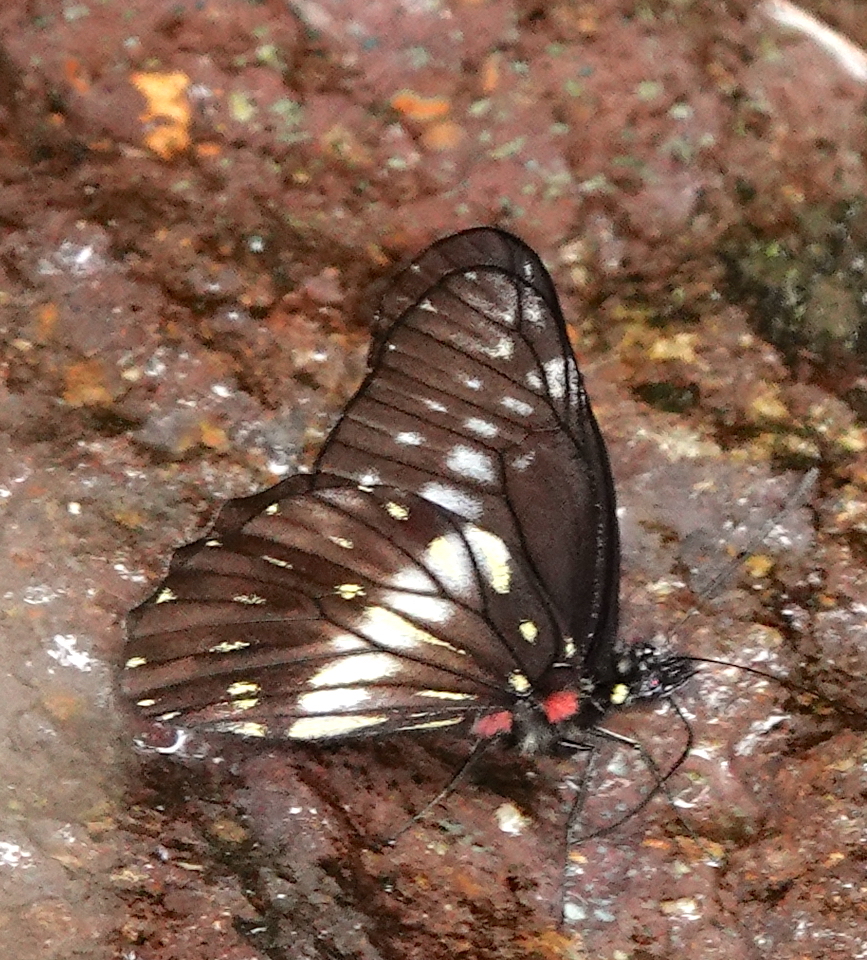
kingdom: Animalia
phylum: Arthropoda
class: Insecta
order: Lepidoptera
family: Pieridae
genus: Archonias
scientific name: Archonias flisa
